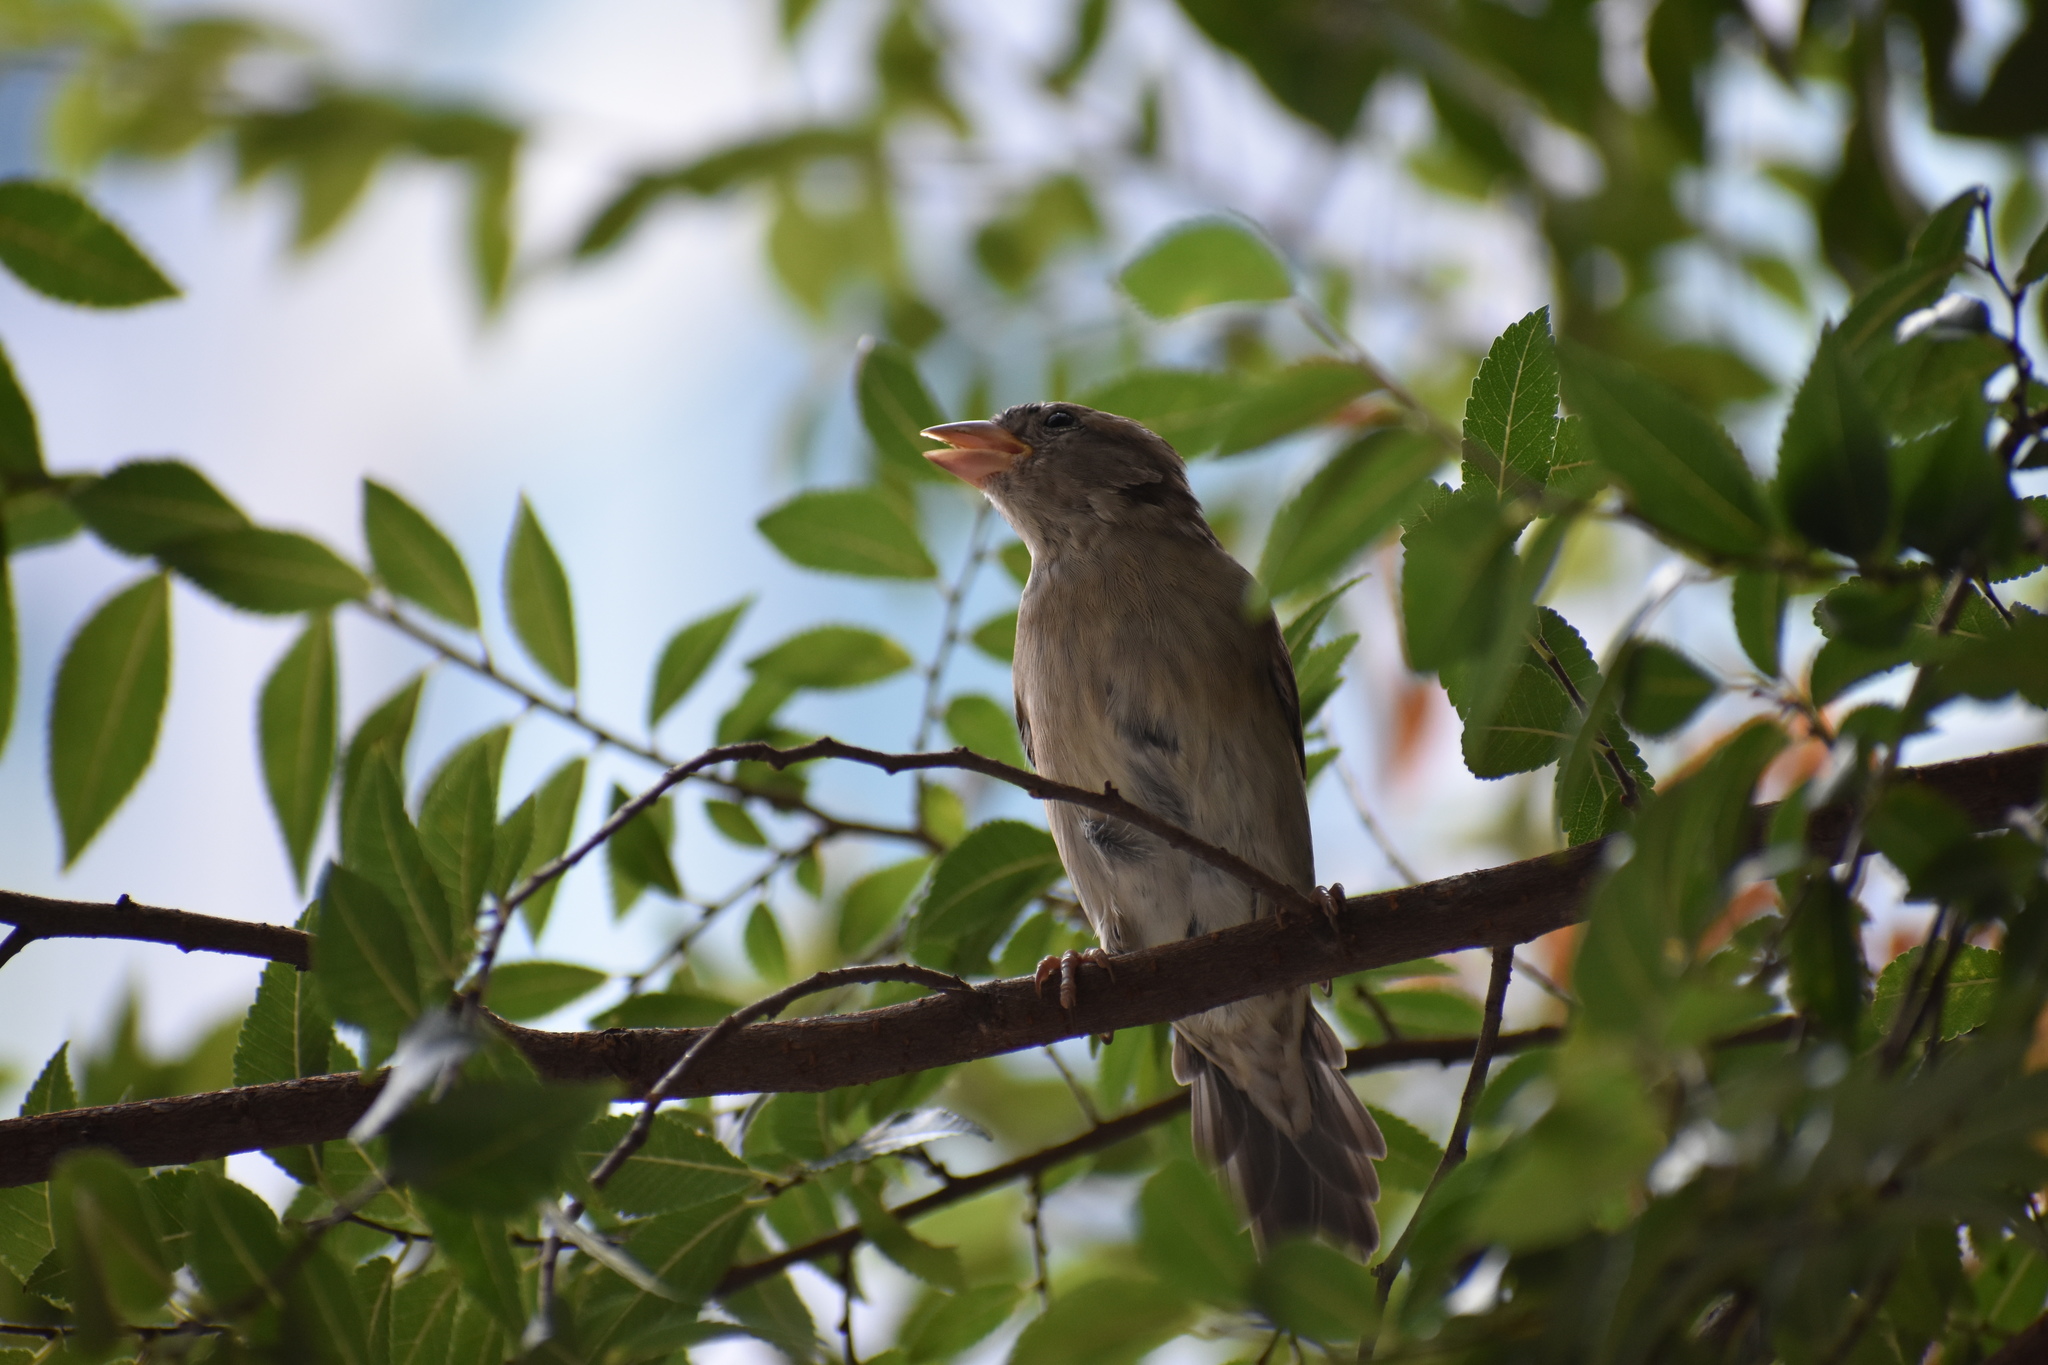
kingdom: Animalia
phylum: Chordata
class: Aves
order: Passeriformes
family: Passeridae
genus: Passer
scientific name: Passer domesticus
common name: House sparrow
